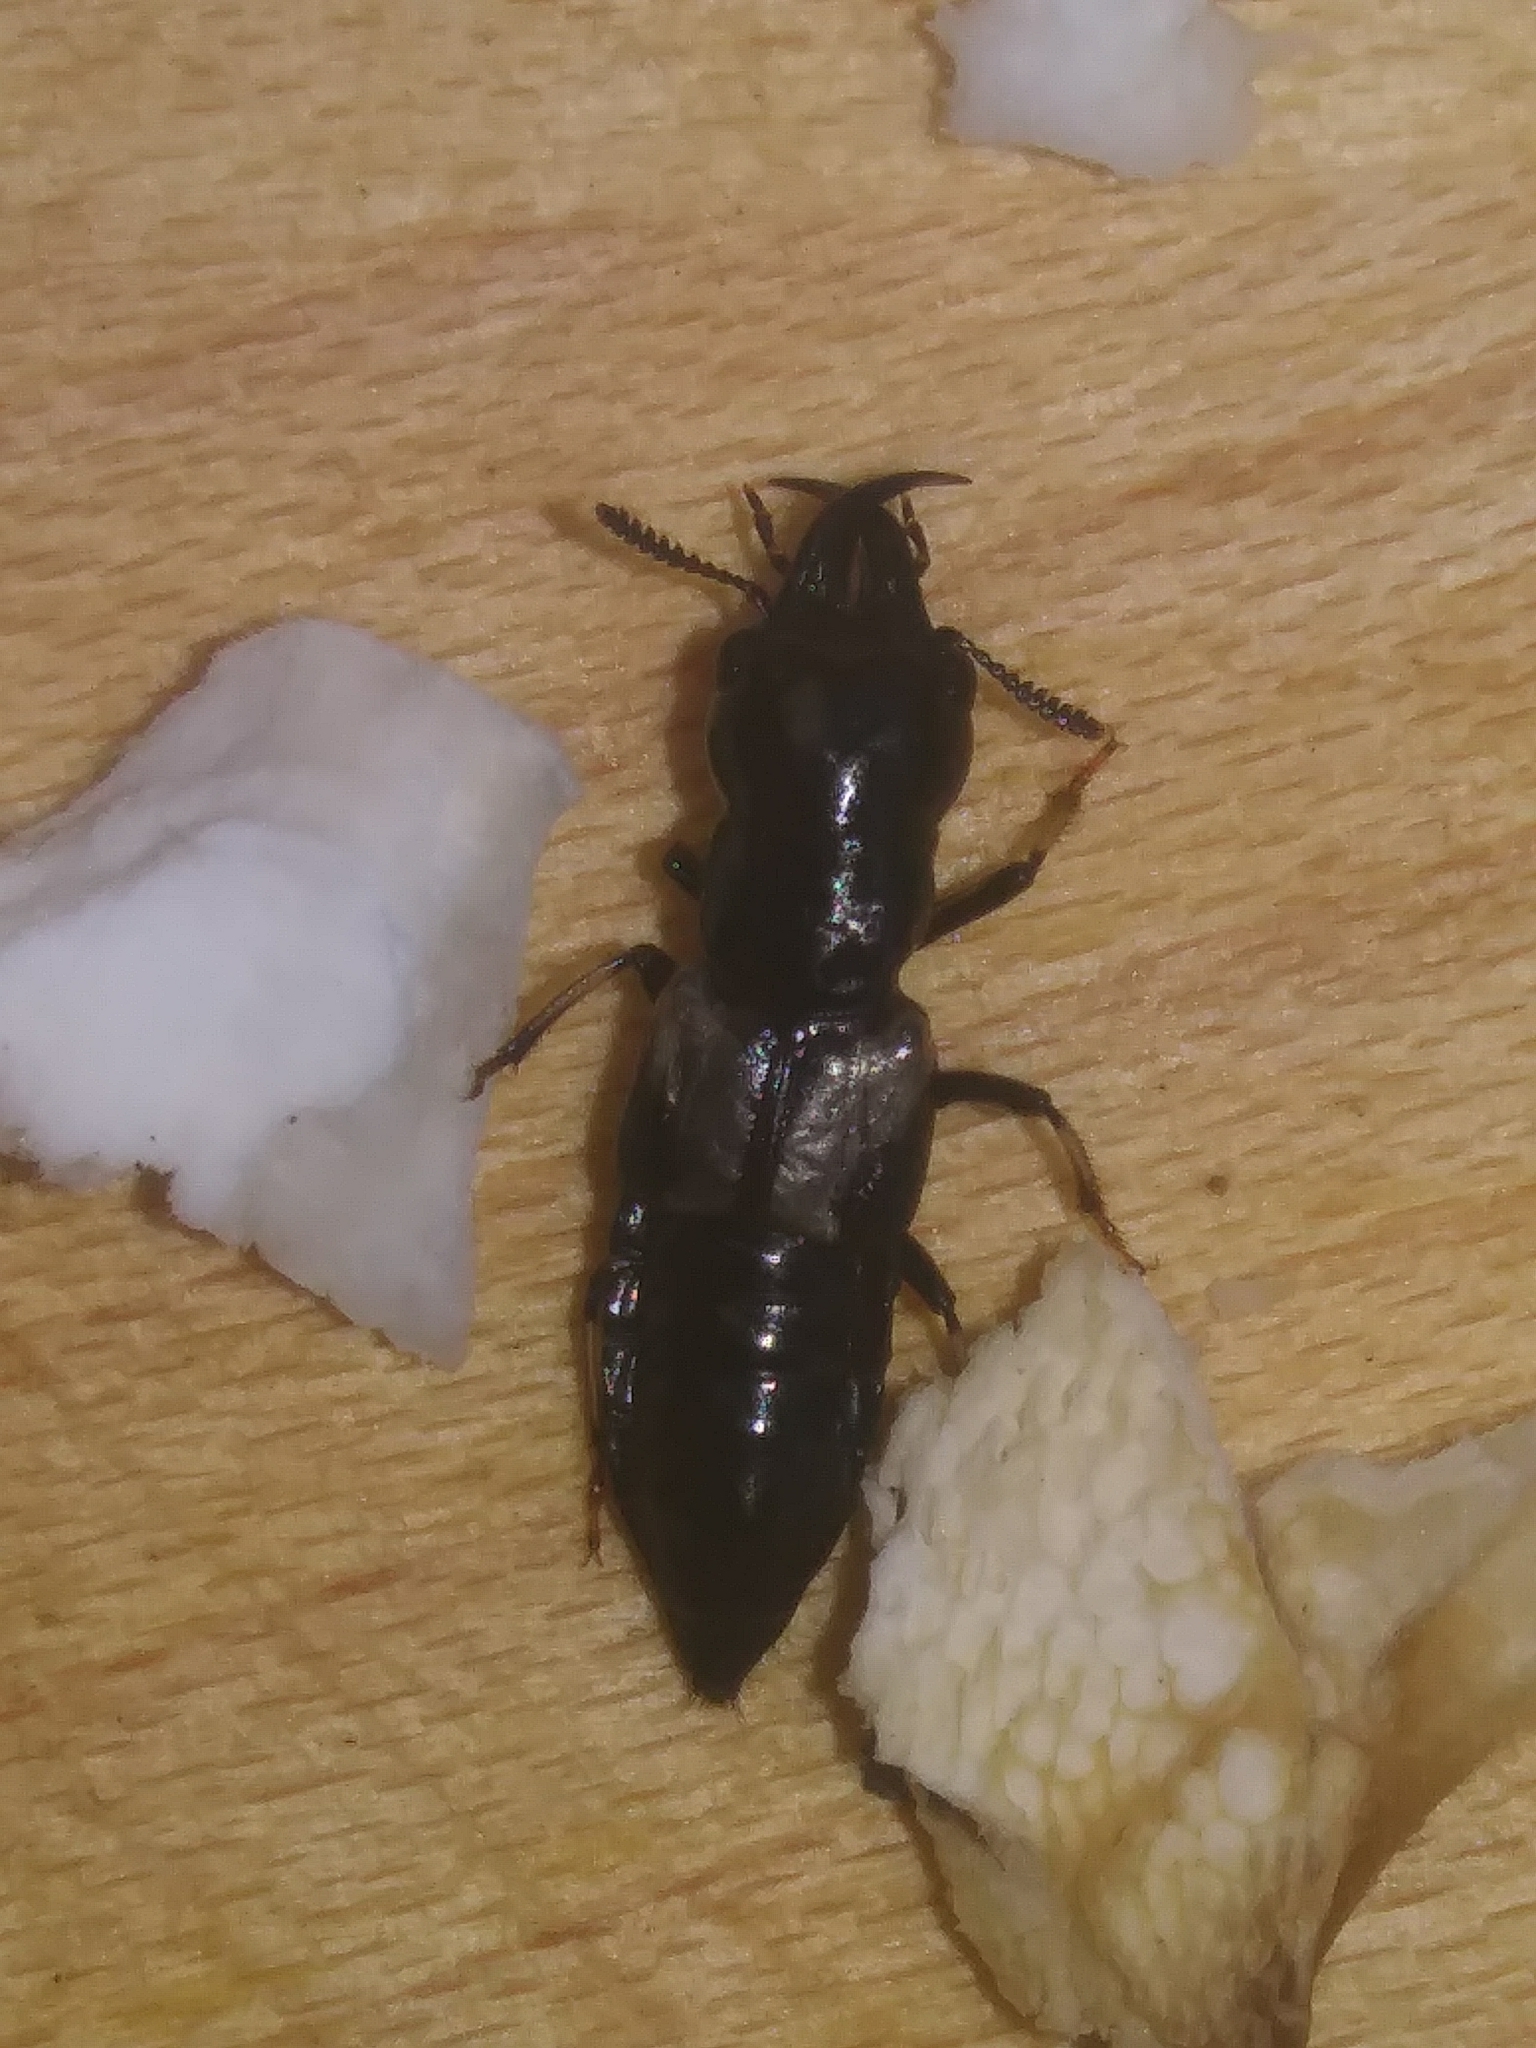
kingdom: Animalia
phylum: Arthropoda
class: Insecta
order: Coleoptera
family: Staphylinidae
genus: Oxyporus
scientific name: Oxyporus femoralis
